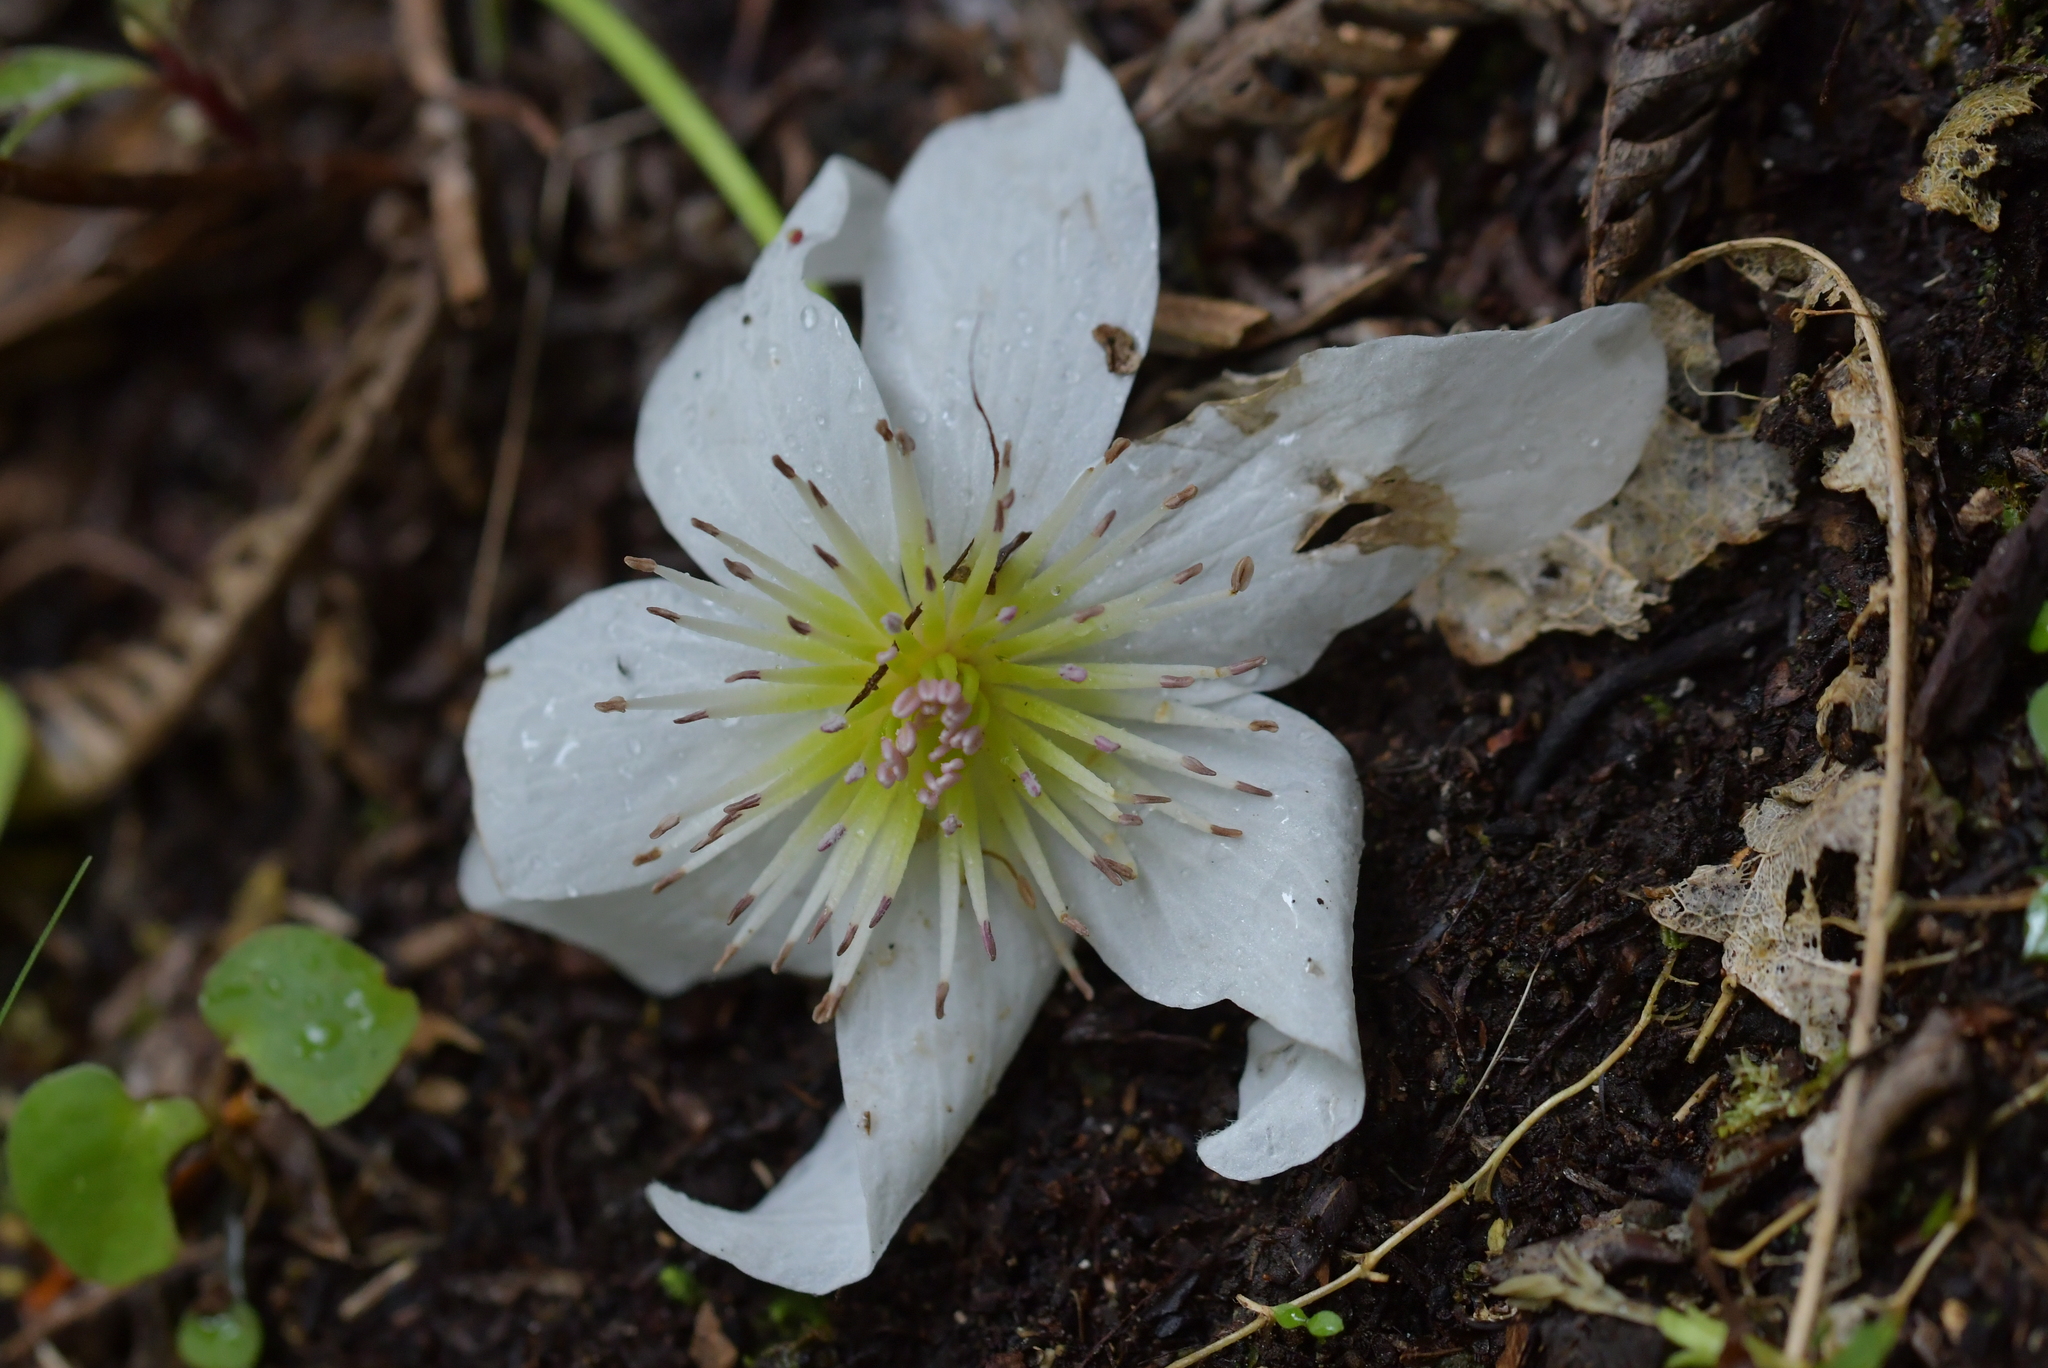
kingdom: Plantae
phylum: Tracheophyta
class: Magnoliopsida
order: Ranunculales
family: Ranunculaceae
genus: Clematis
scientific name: Clematis paniculata
